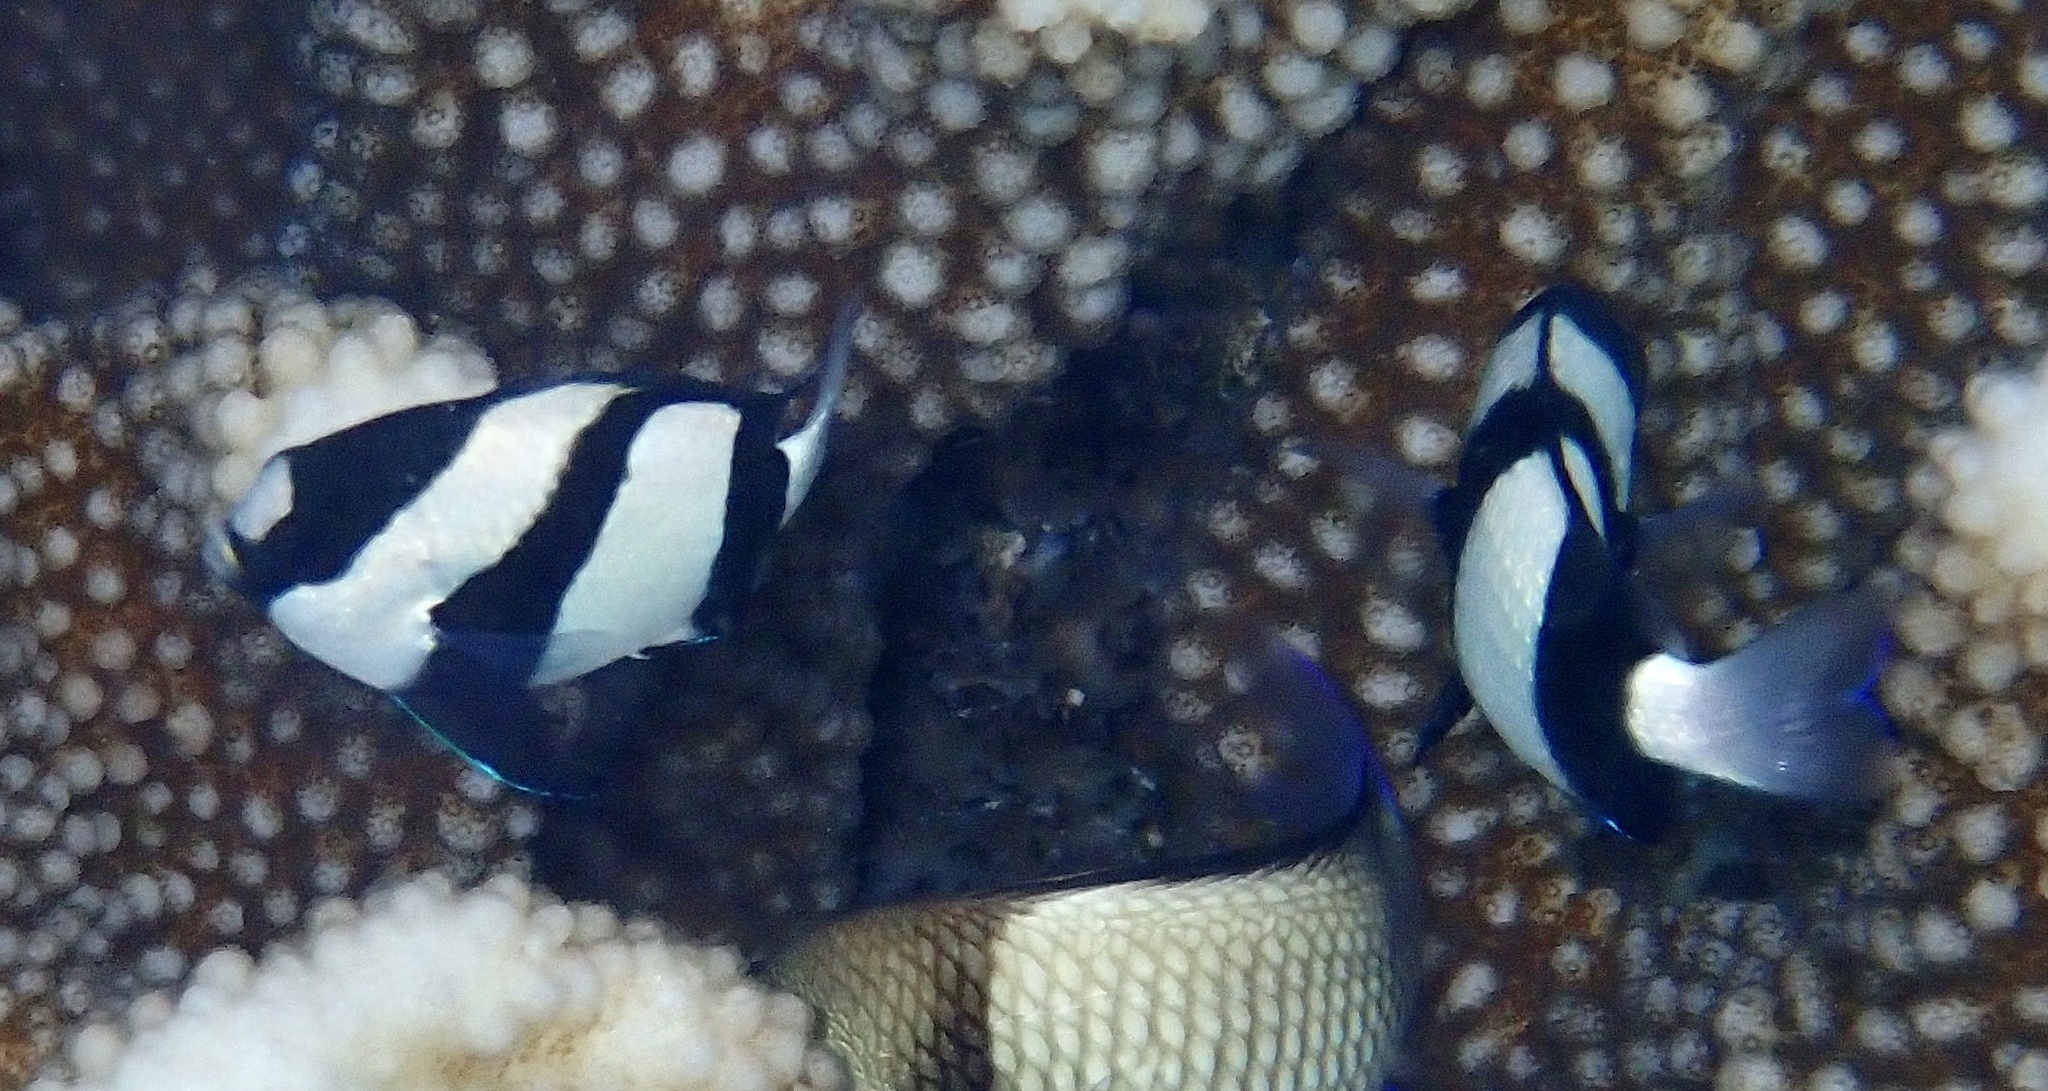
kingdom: Animalia
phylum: Chordata
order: Perciformes
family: Pomacentridae
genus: Dascyllus
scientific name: Dascyllus aruanus
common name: Humbug dascyllus
